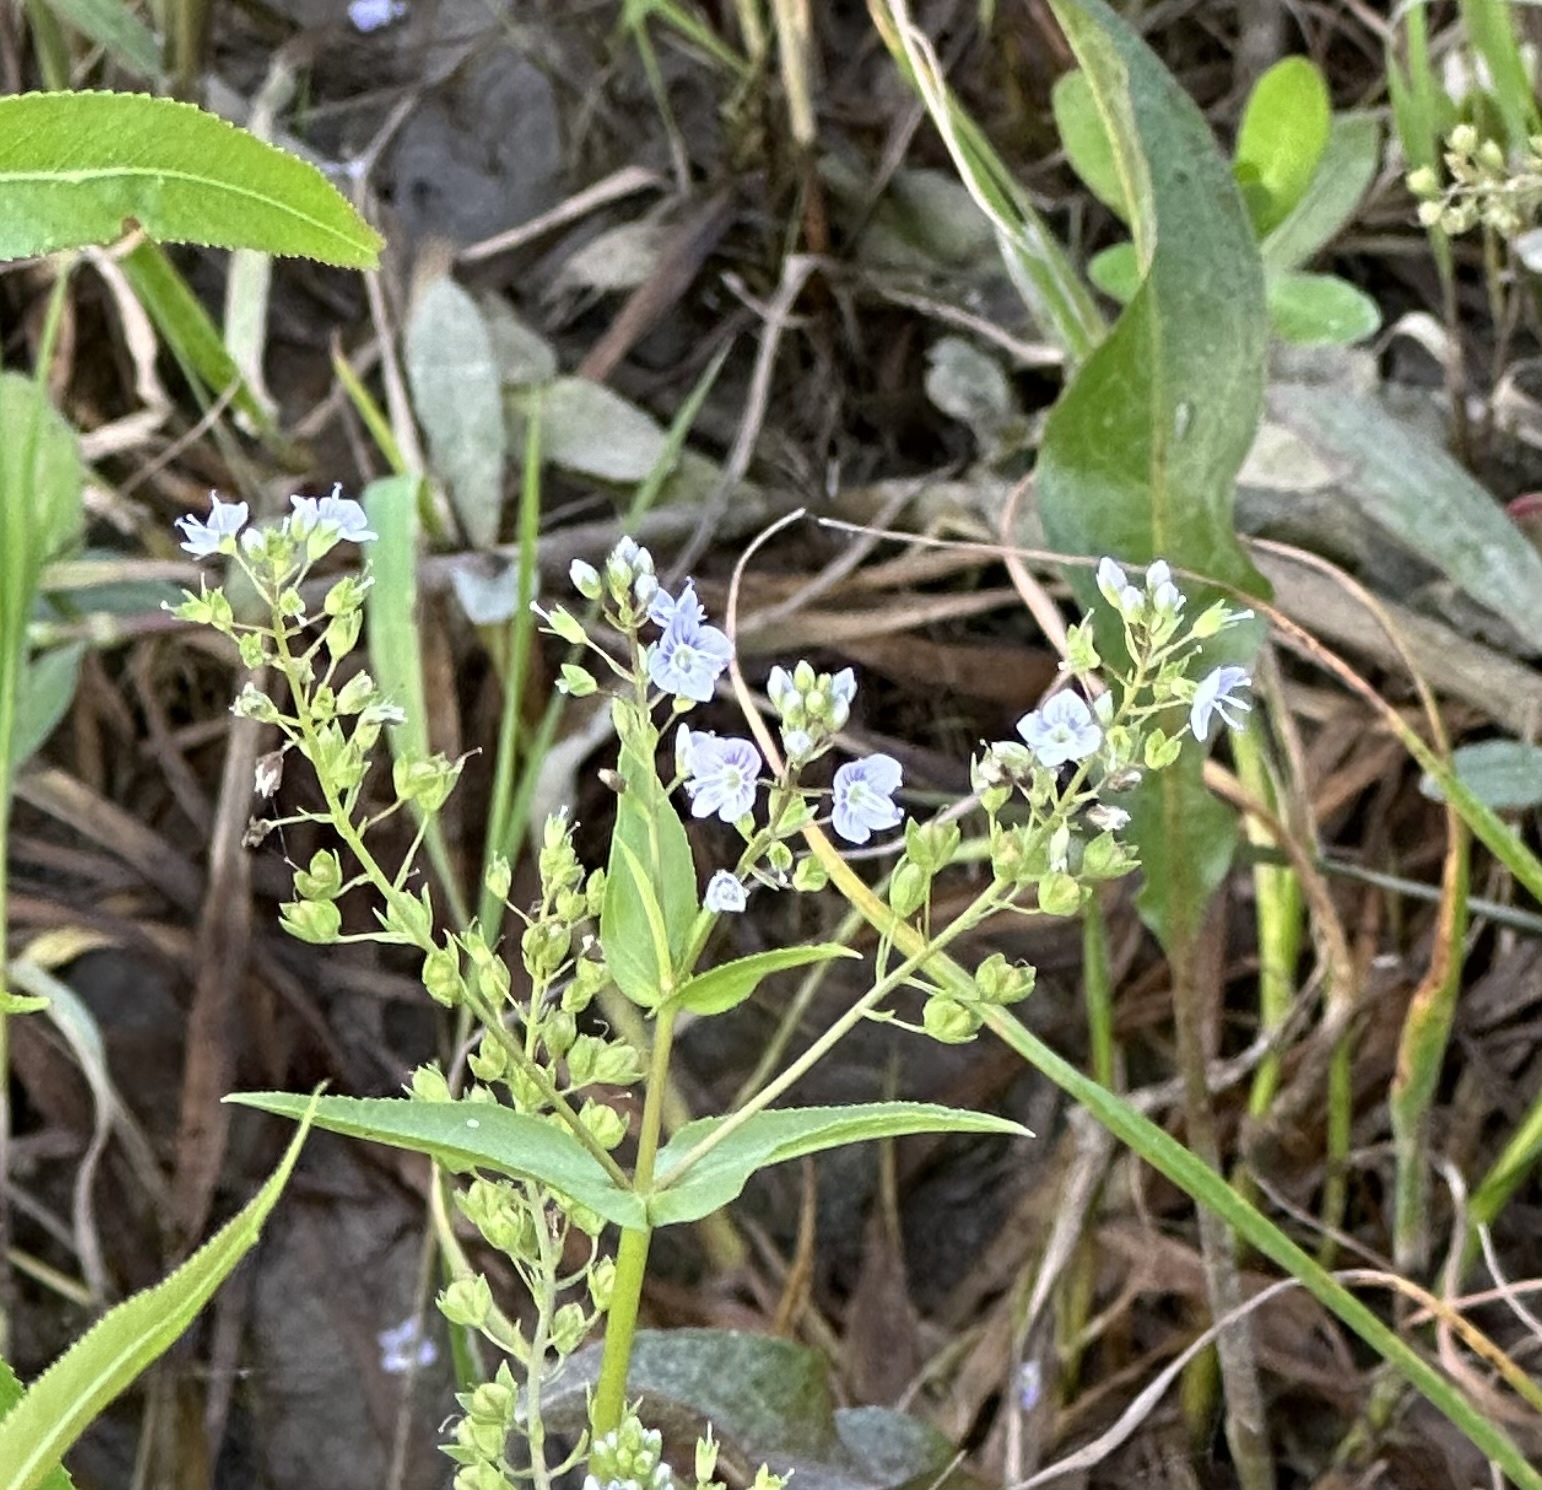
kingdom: Plantae
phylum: Tracheophyta
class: Magnoliopsida
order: Lamiales
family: Plantaginaceae
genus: Veronica
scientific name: Veronica anagallis-aquatica
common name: Water speedwell
